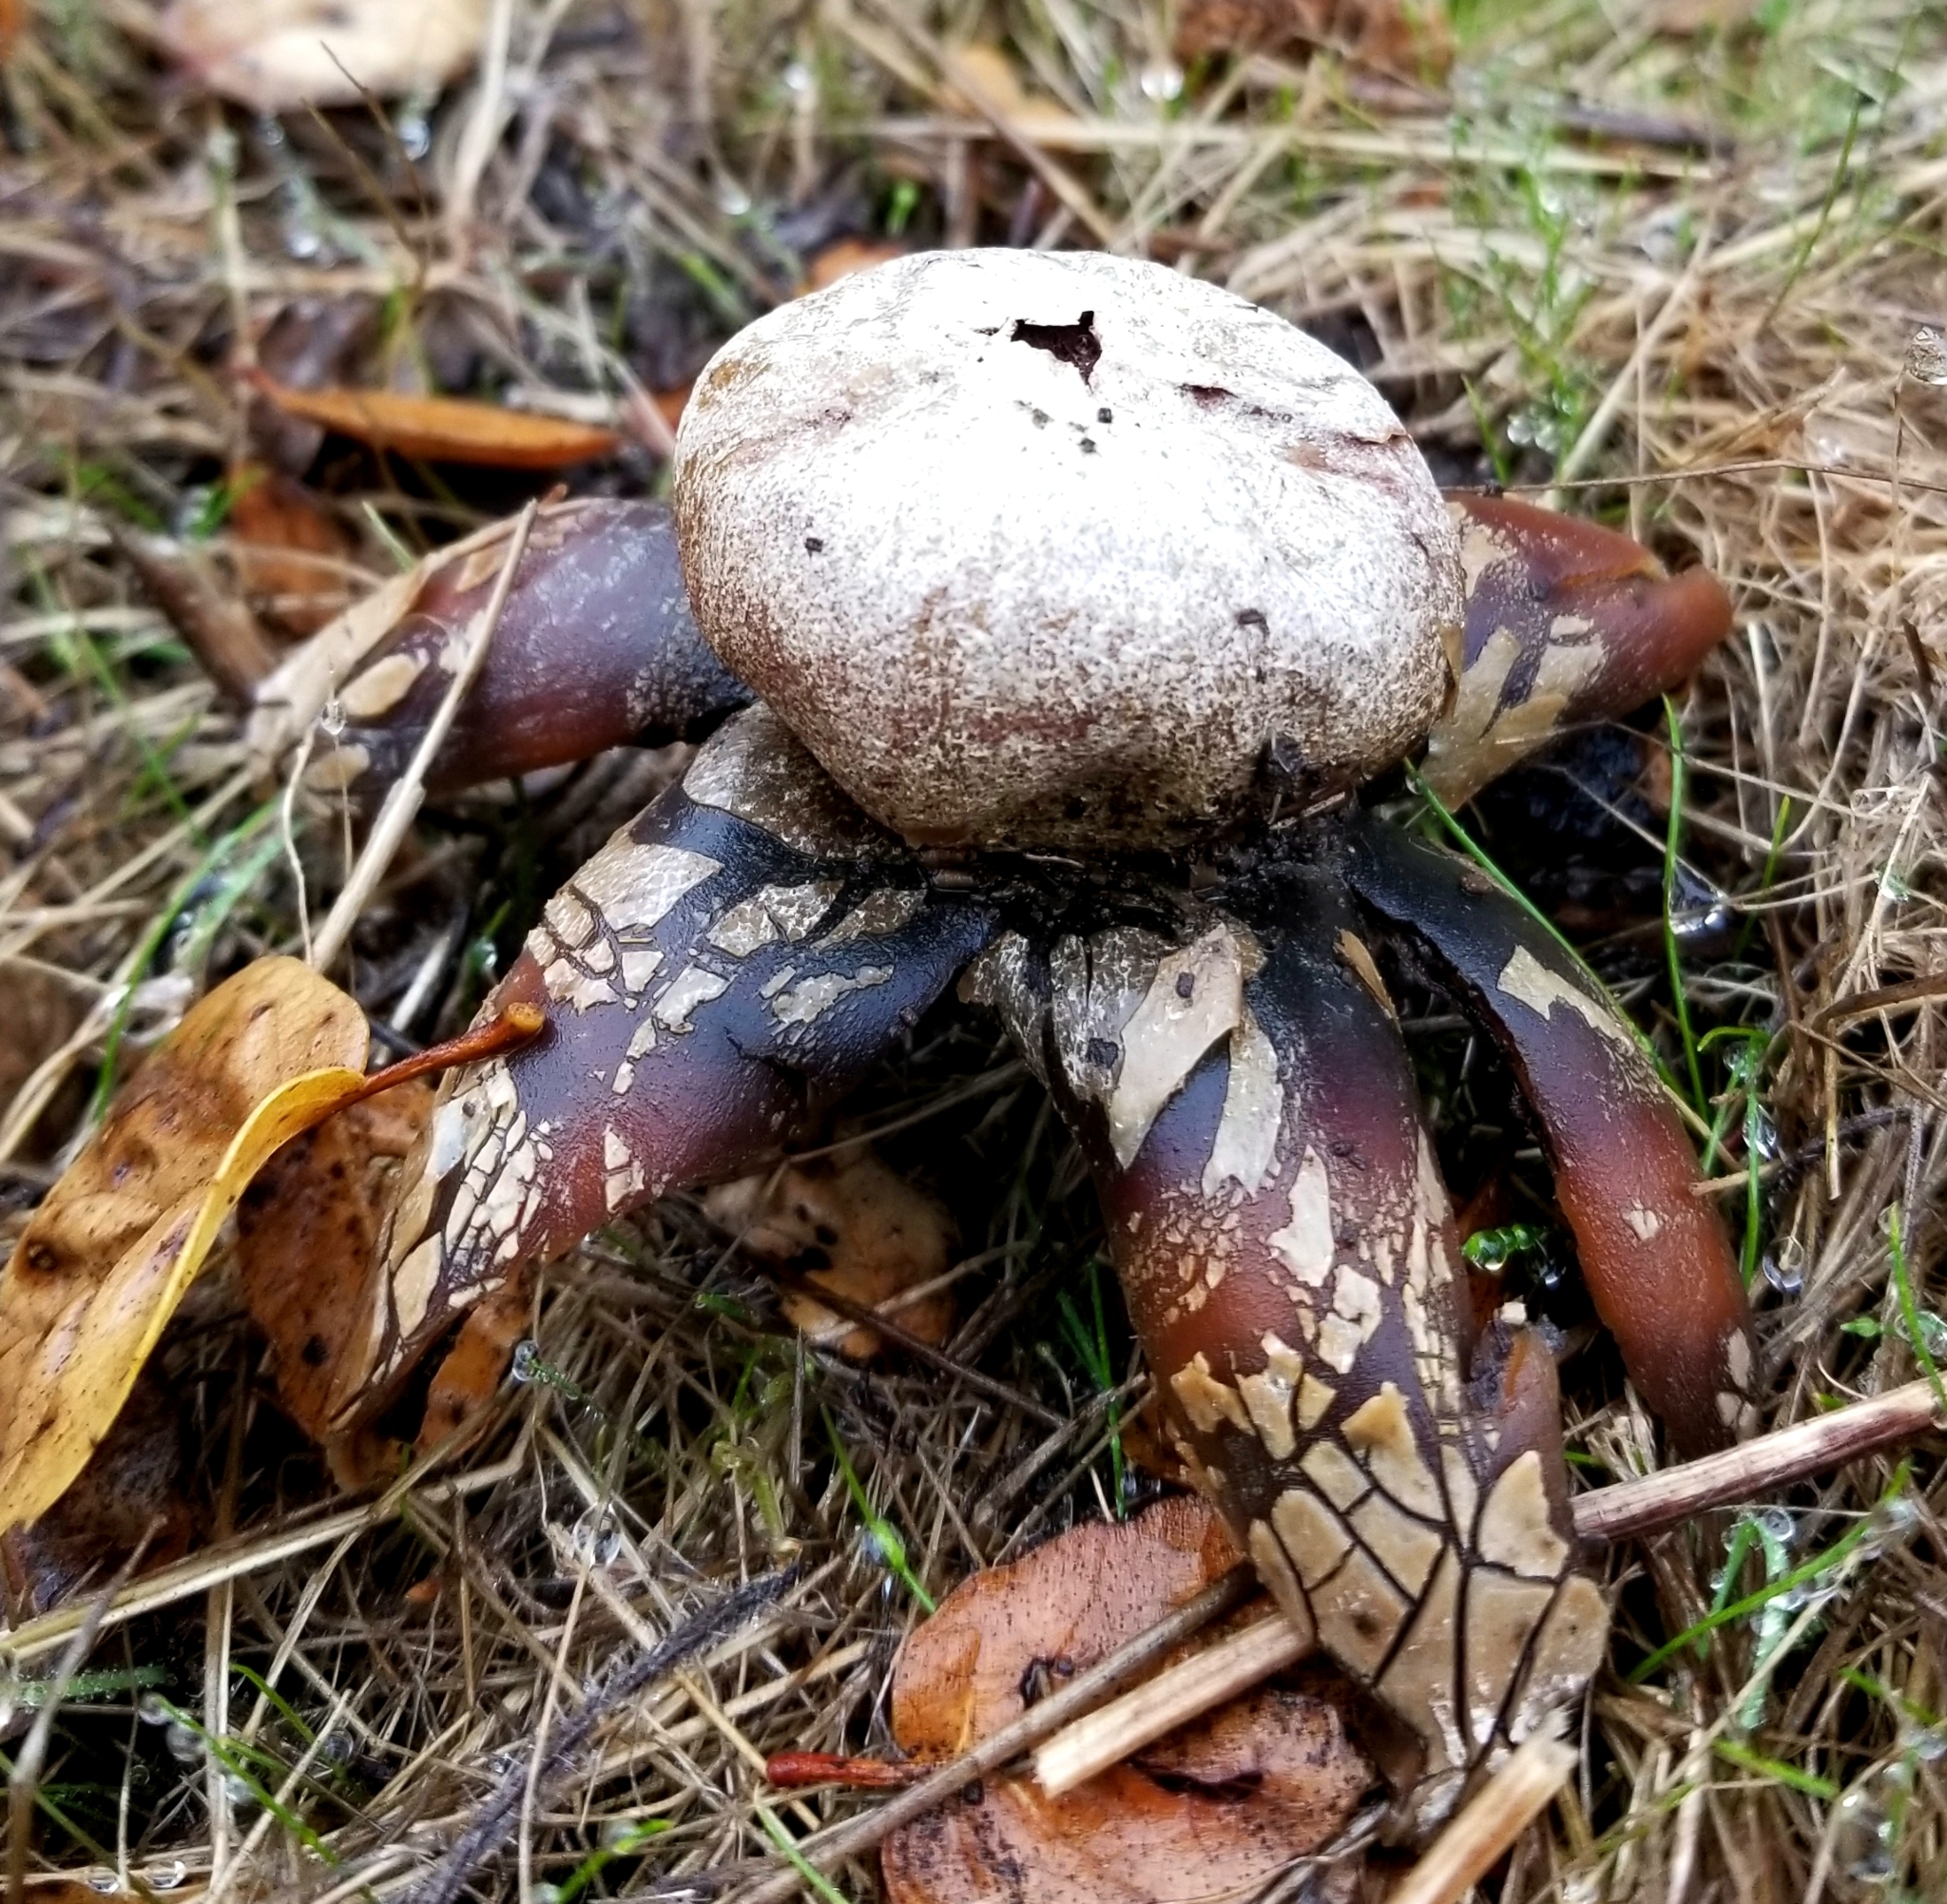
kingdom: Fungi
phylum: Basidiomycota
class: Agaricomycetes
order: Boletales
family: Diplocystidiaceae
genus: Astraeus
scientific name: Astraeus pteridis
